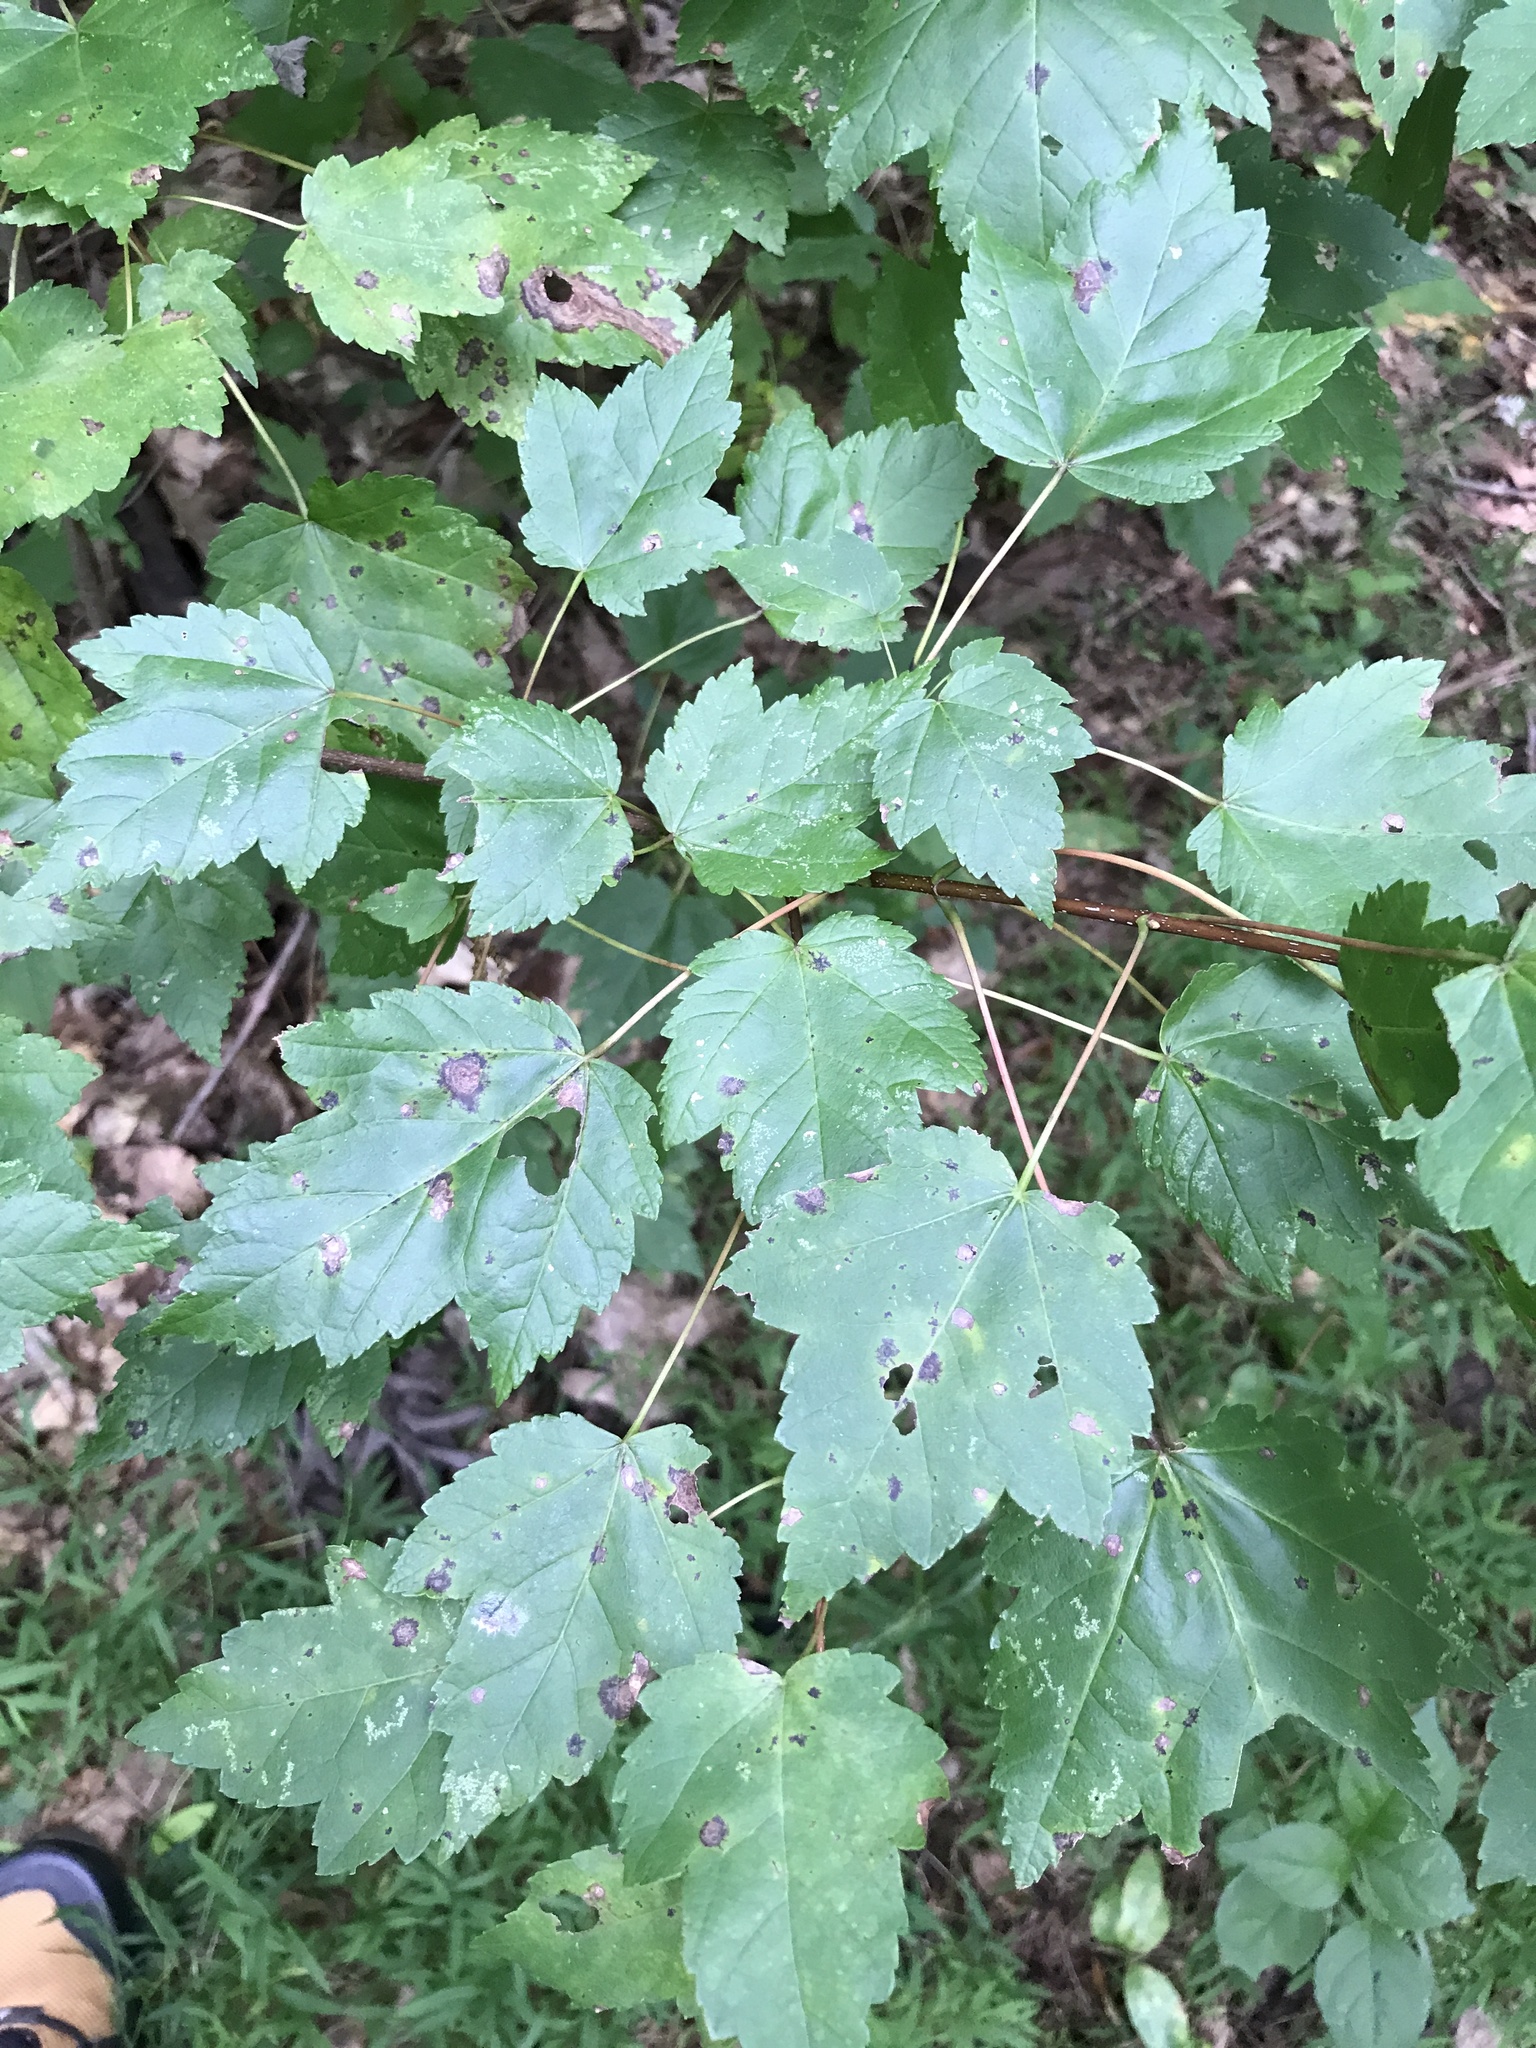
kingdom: Plantae
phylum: Tracheophyta
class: Magnoliopsida
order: Sapindales
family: Sapindaceae
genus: Acer
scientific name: Acer rubrum
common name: Red maple
